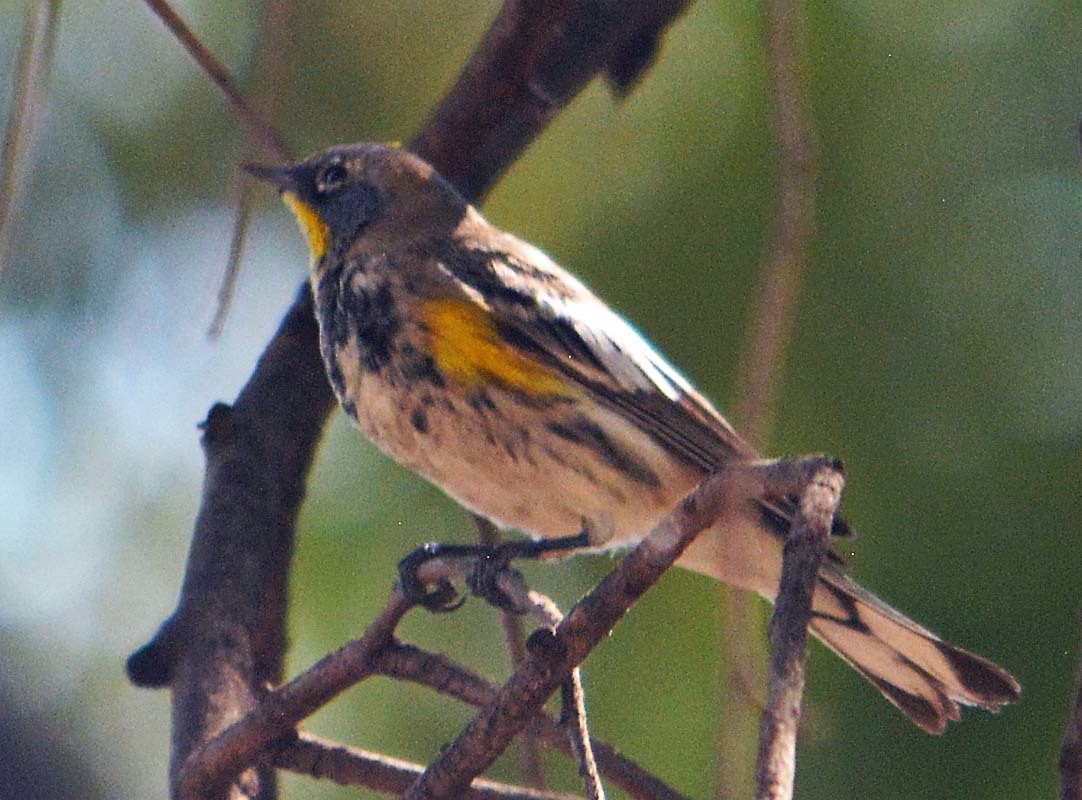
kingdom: Animalia
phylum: Chordata
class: Aves
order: Passeriformes
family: Parulidae
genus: Setophaga
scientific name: Setophaga auduboni
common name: Audubon's warbler
